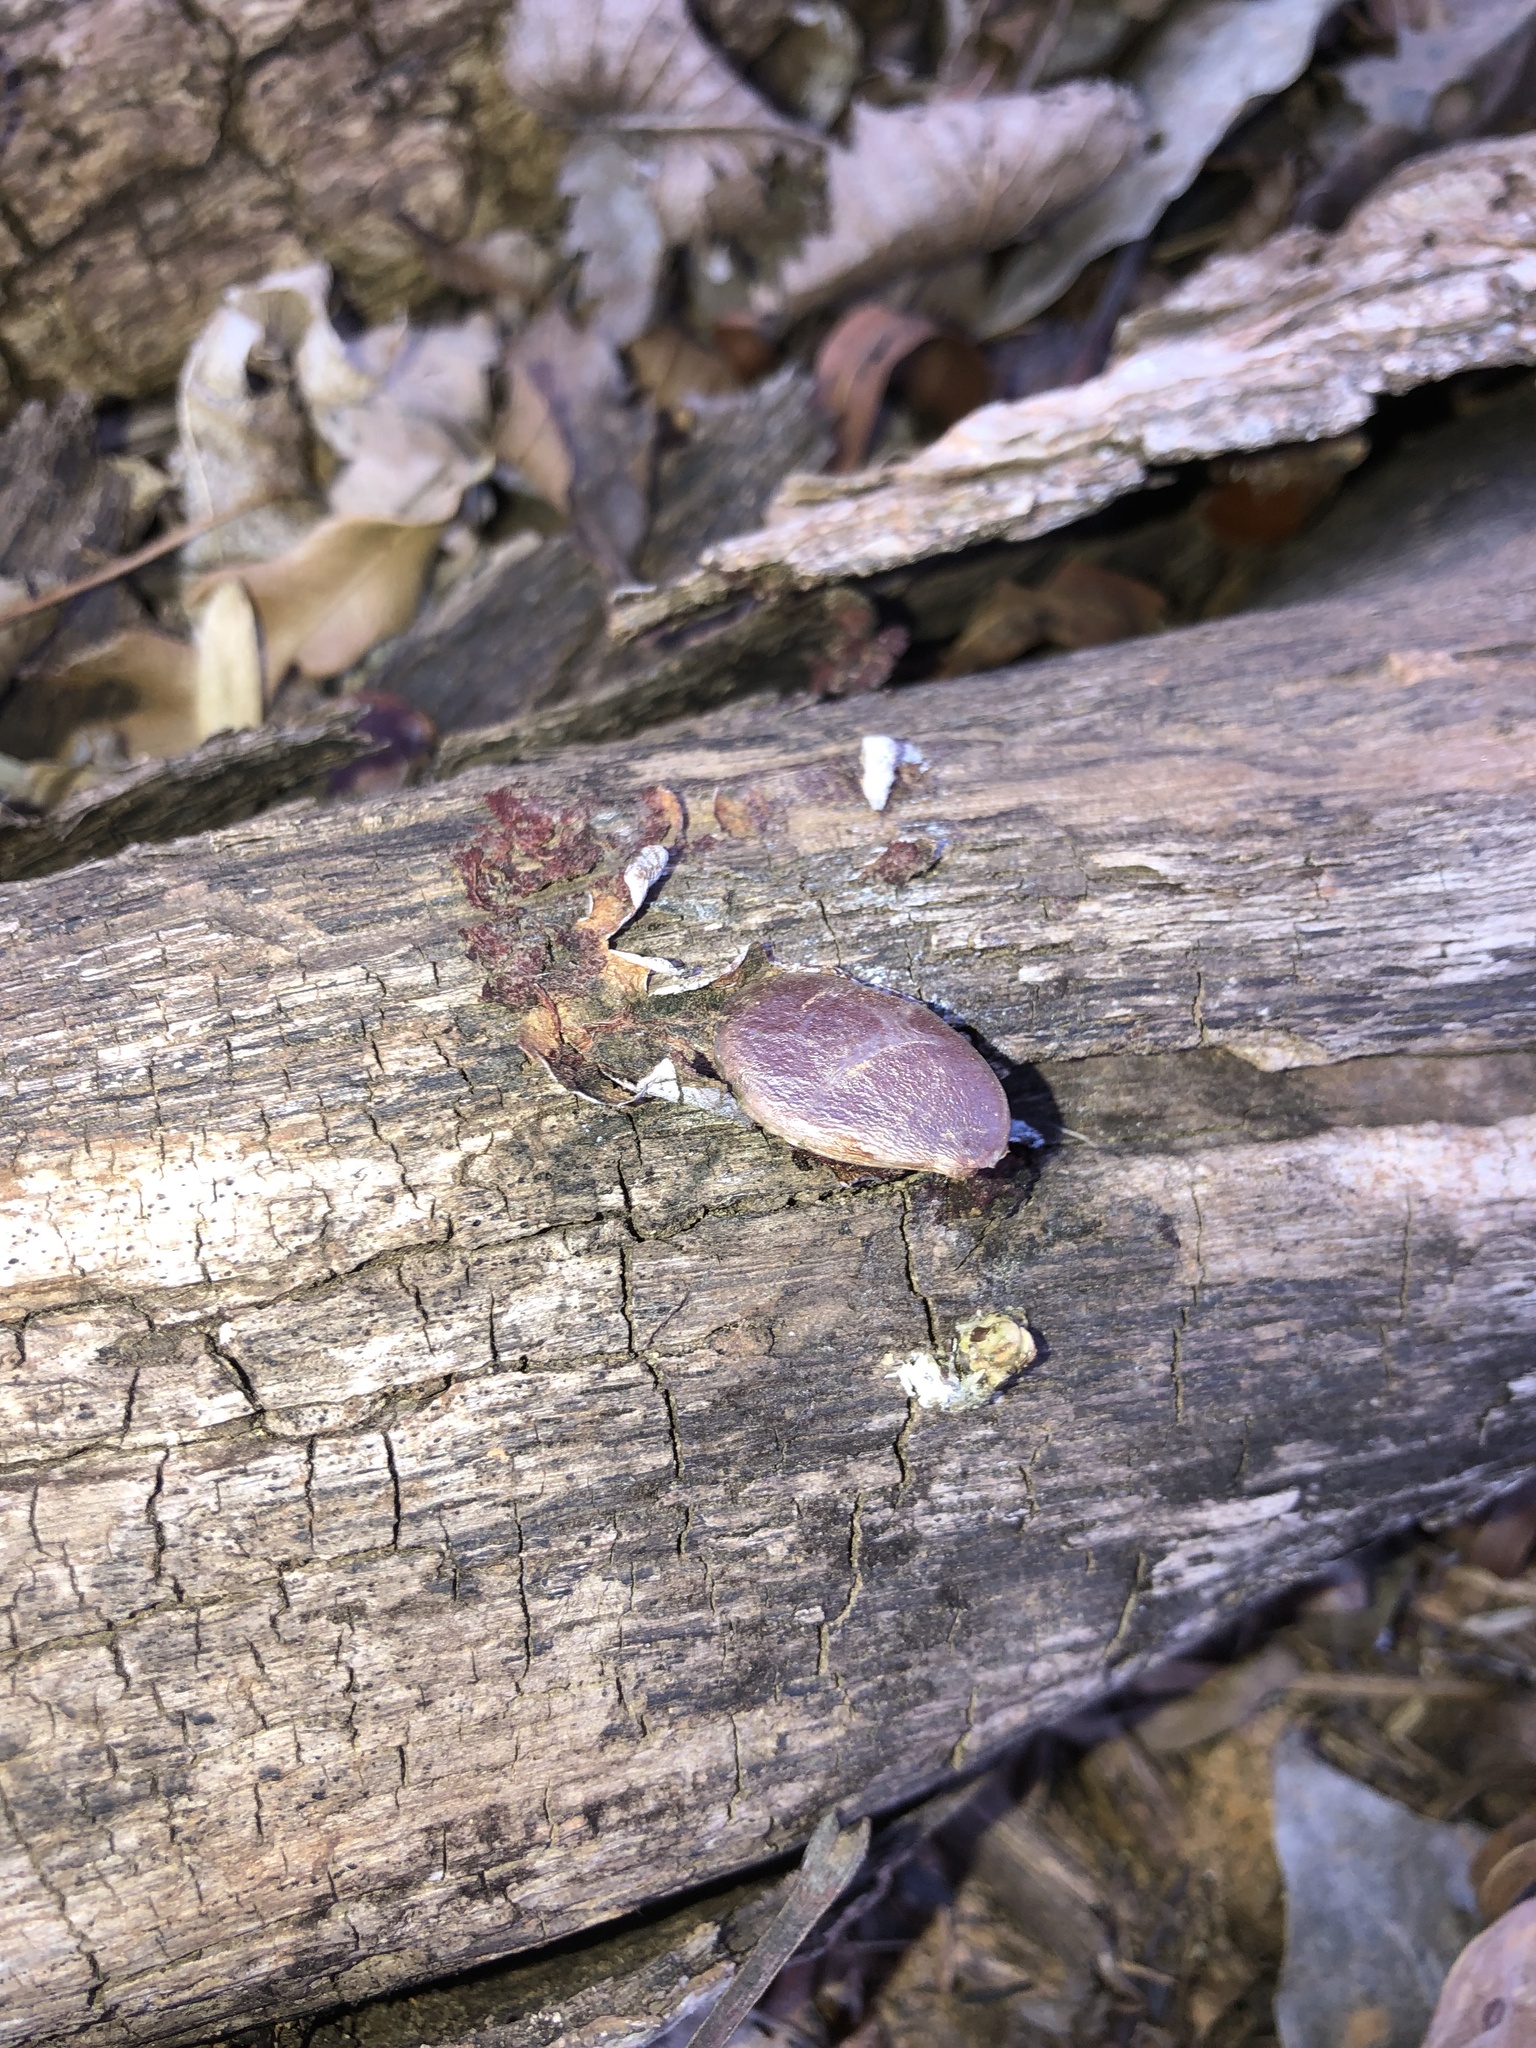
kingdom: Plantae
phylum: Tracheophyta
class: Magnoliopsida
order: Ericales
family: Ebenaceae
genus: Diospyros
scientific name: Diospyros virginiana
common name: Persimmon
